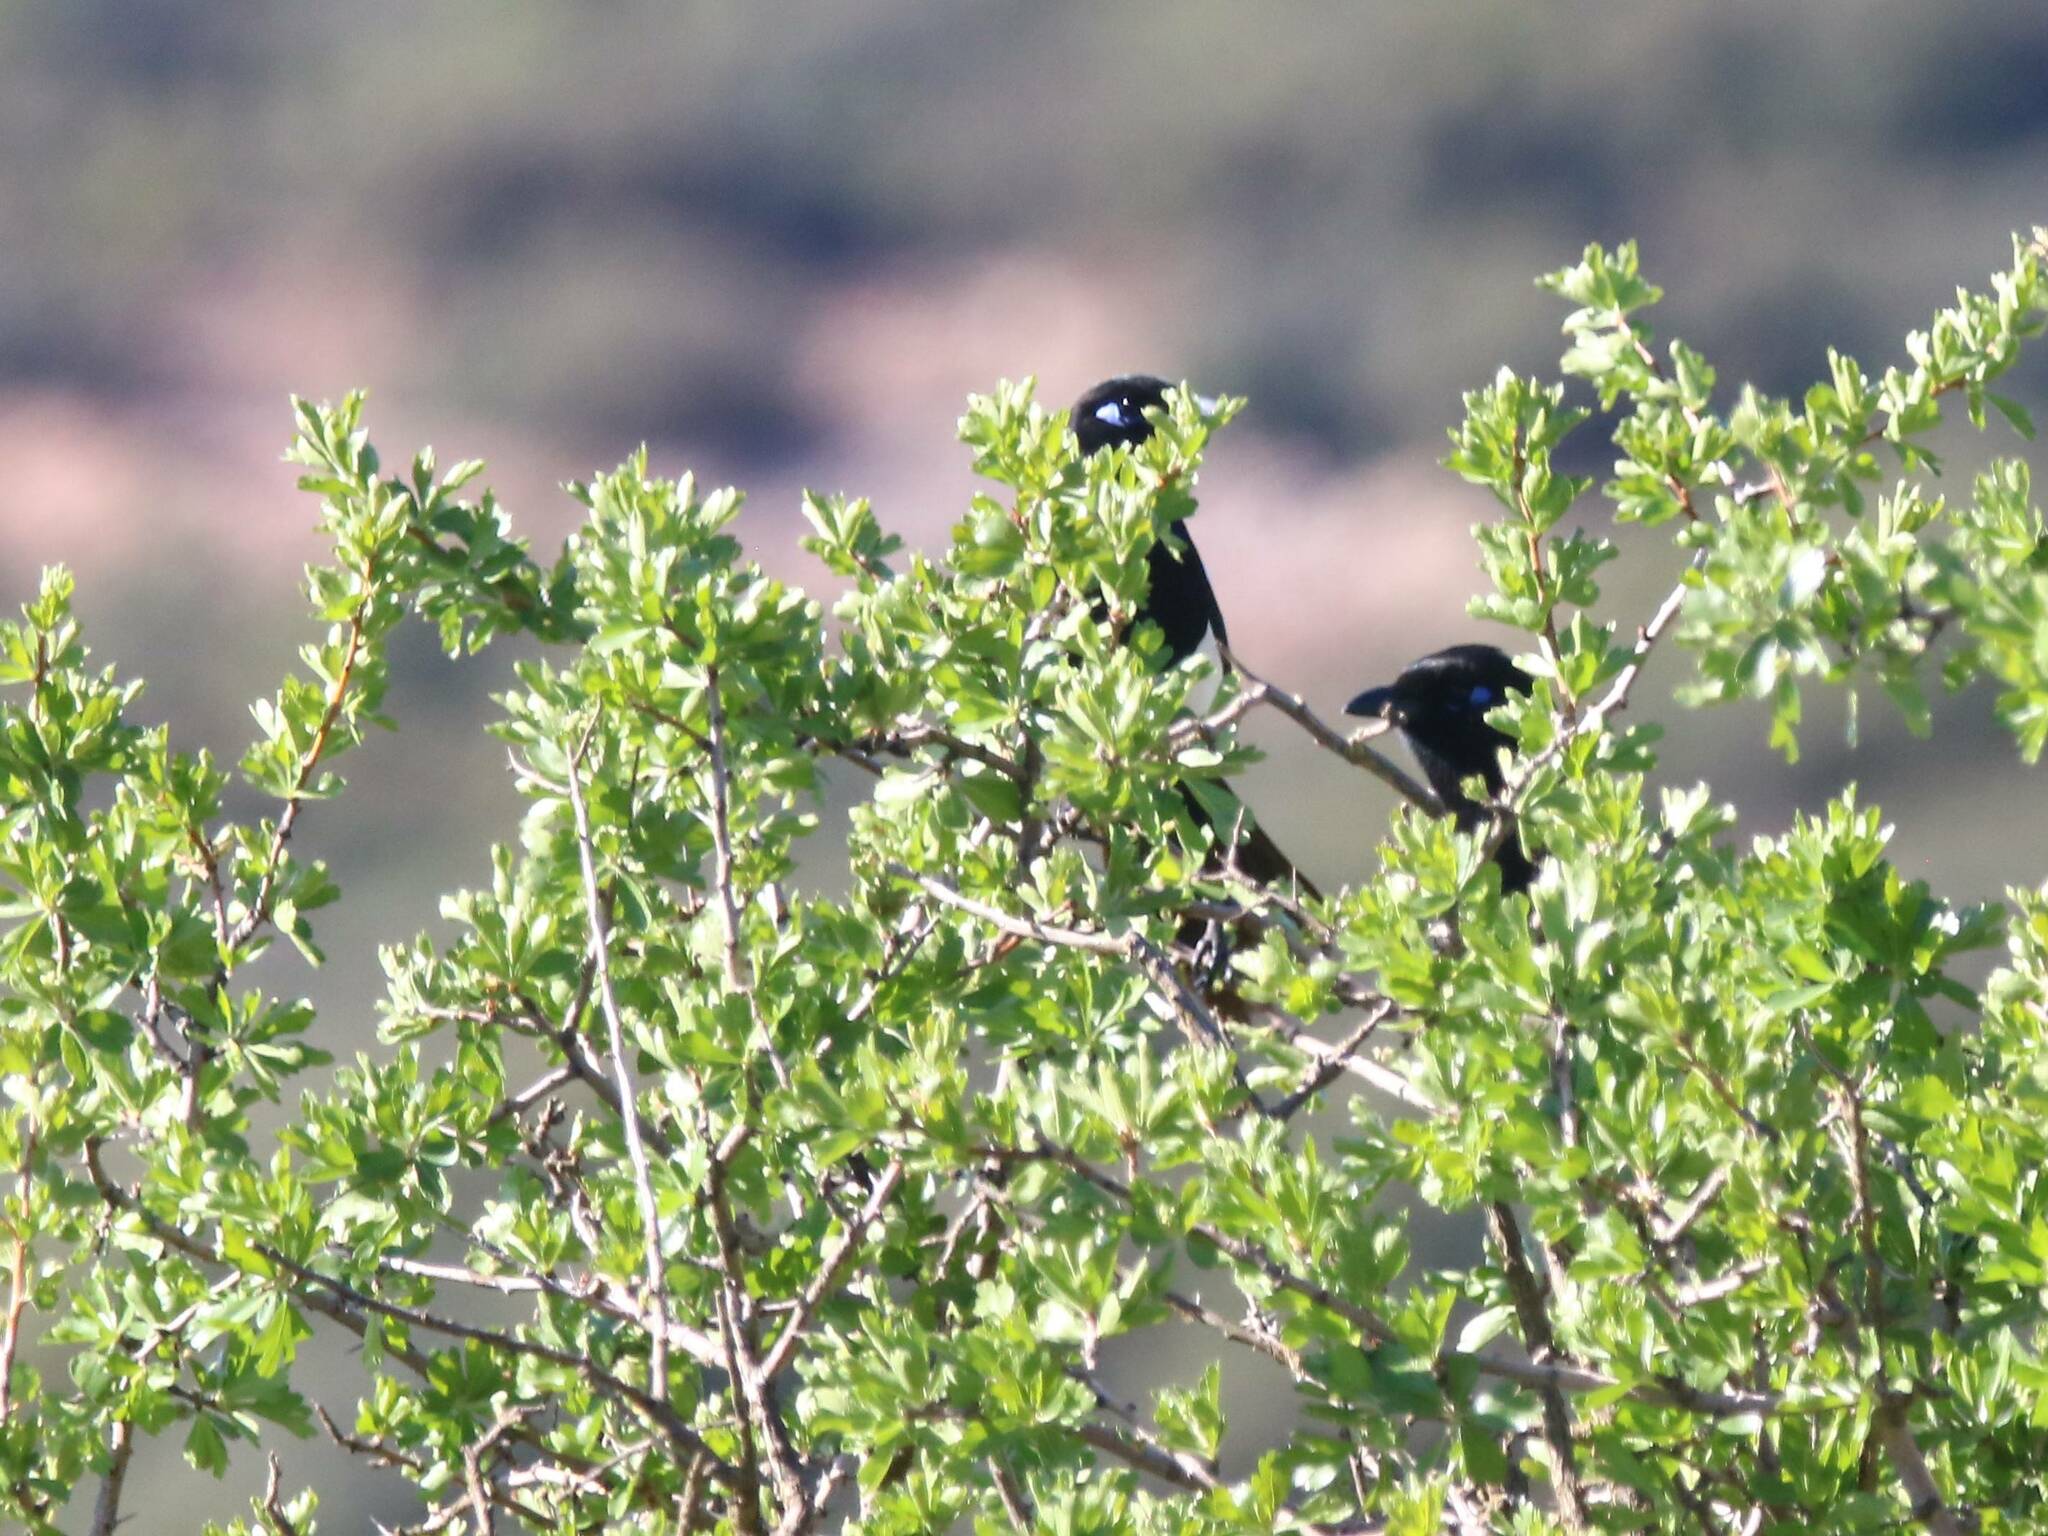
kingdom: Animalia
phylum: Chordata
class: Aves
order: Passeriformes
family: Corvidae
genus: Pica
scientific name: Pica mauritanica
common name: Maghreb magpie
